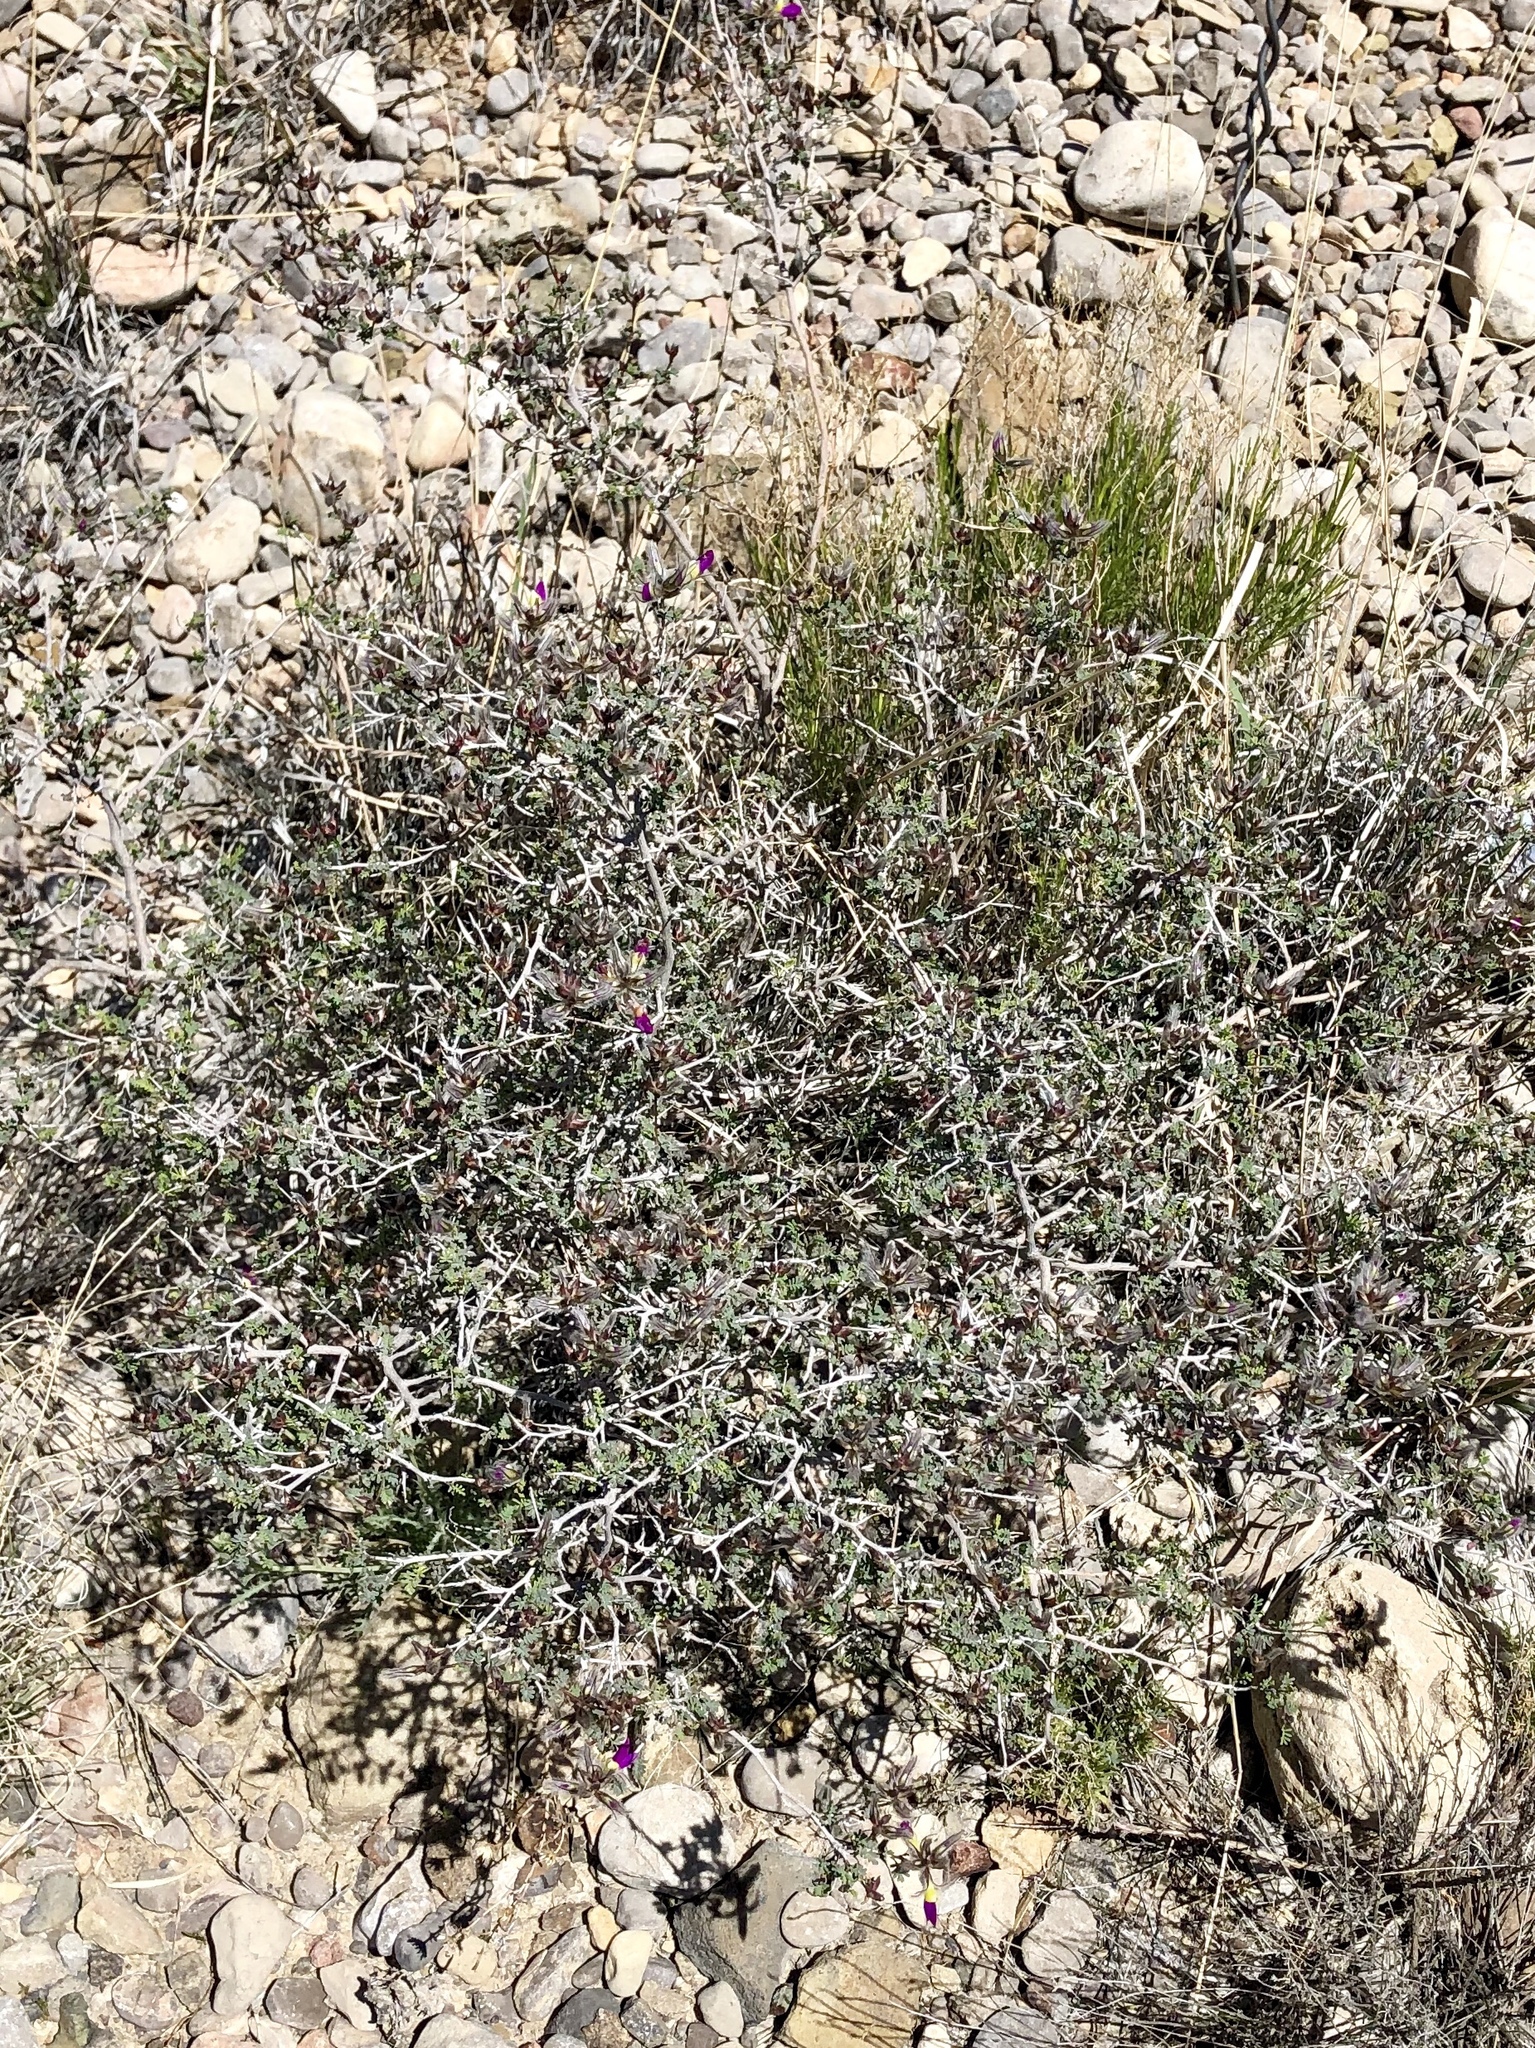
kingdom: Plantae
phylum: Tracheophyta
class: Magnoliopsida
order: Fabales
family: Fabaceae
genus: Dalea
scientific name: Dalea formosa
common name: Feather-plume dalea
